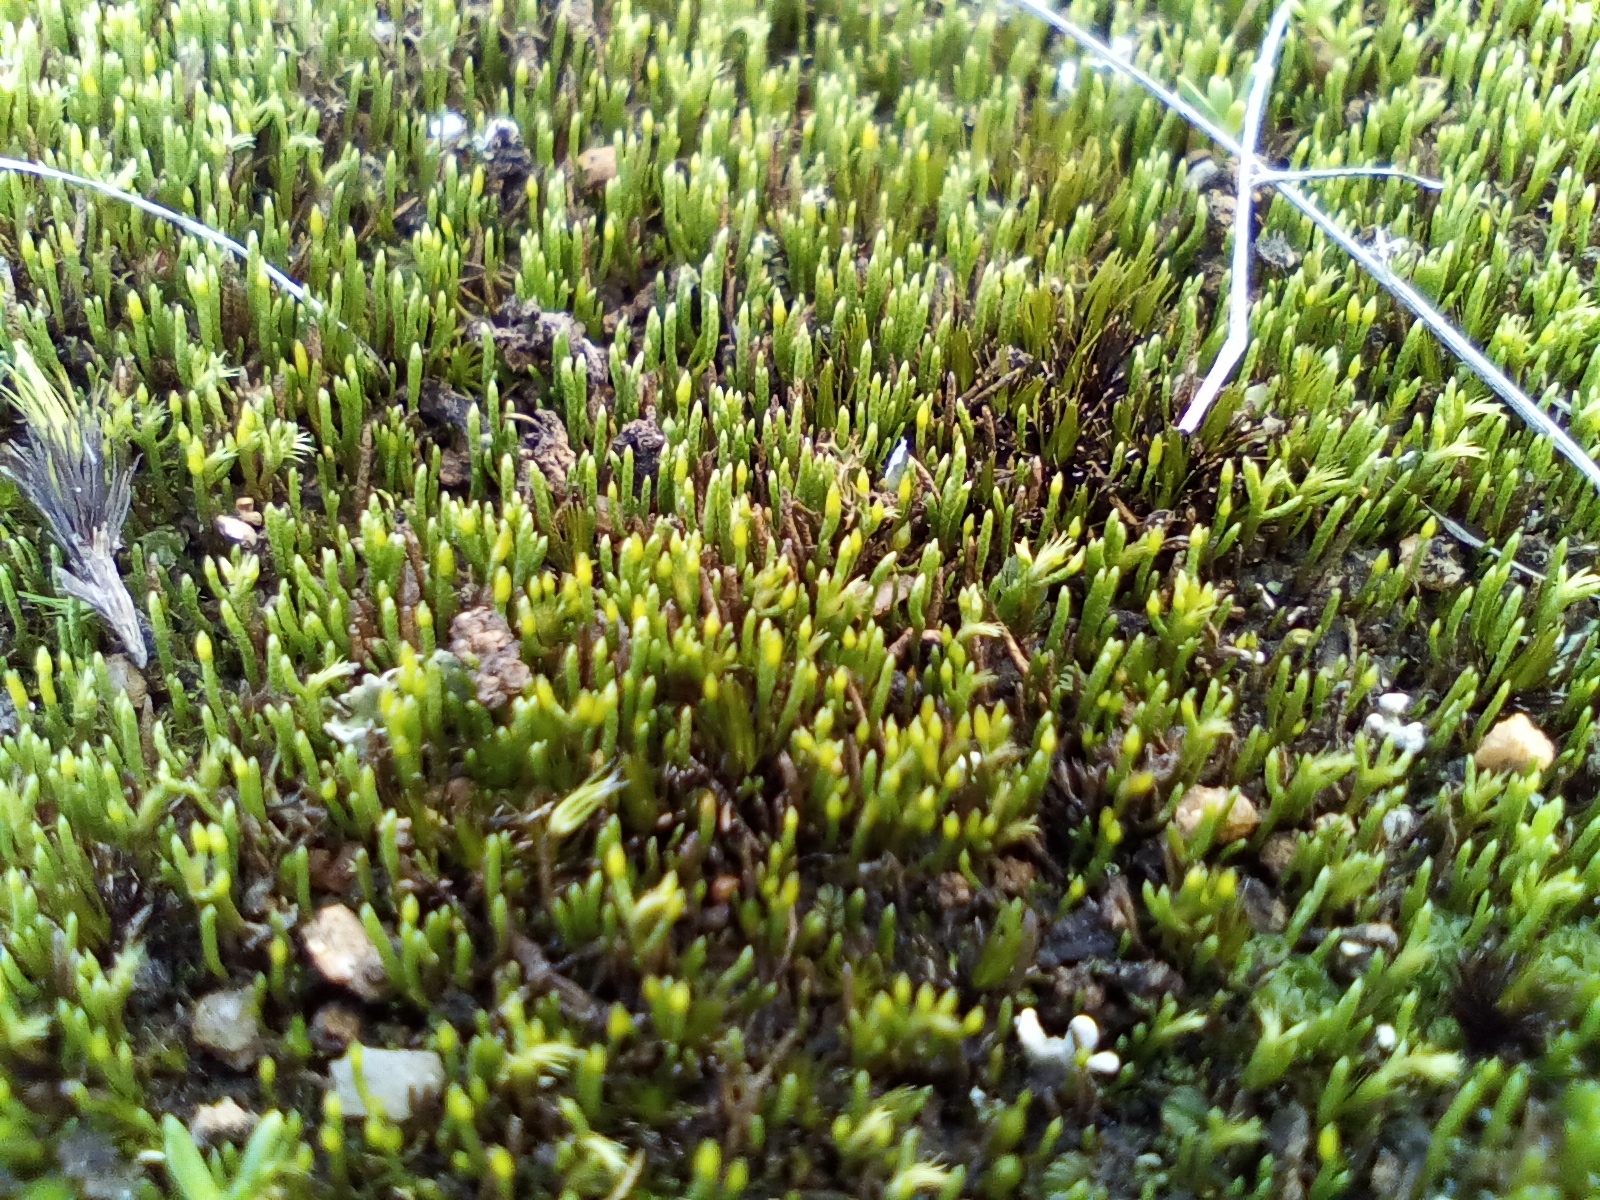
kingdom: Plantae
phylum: Bryophyta
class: Bryopsida
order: Dicranales
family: Dicranellaceae
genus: Eccremidium
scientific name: Eccremidium pulchellum
